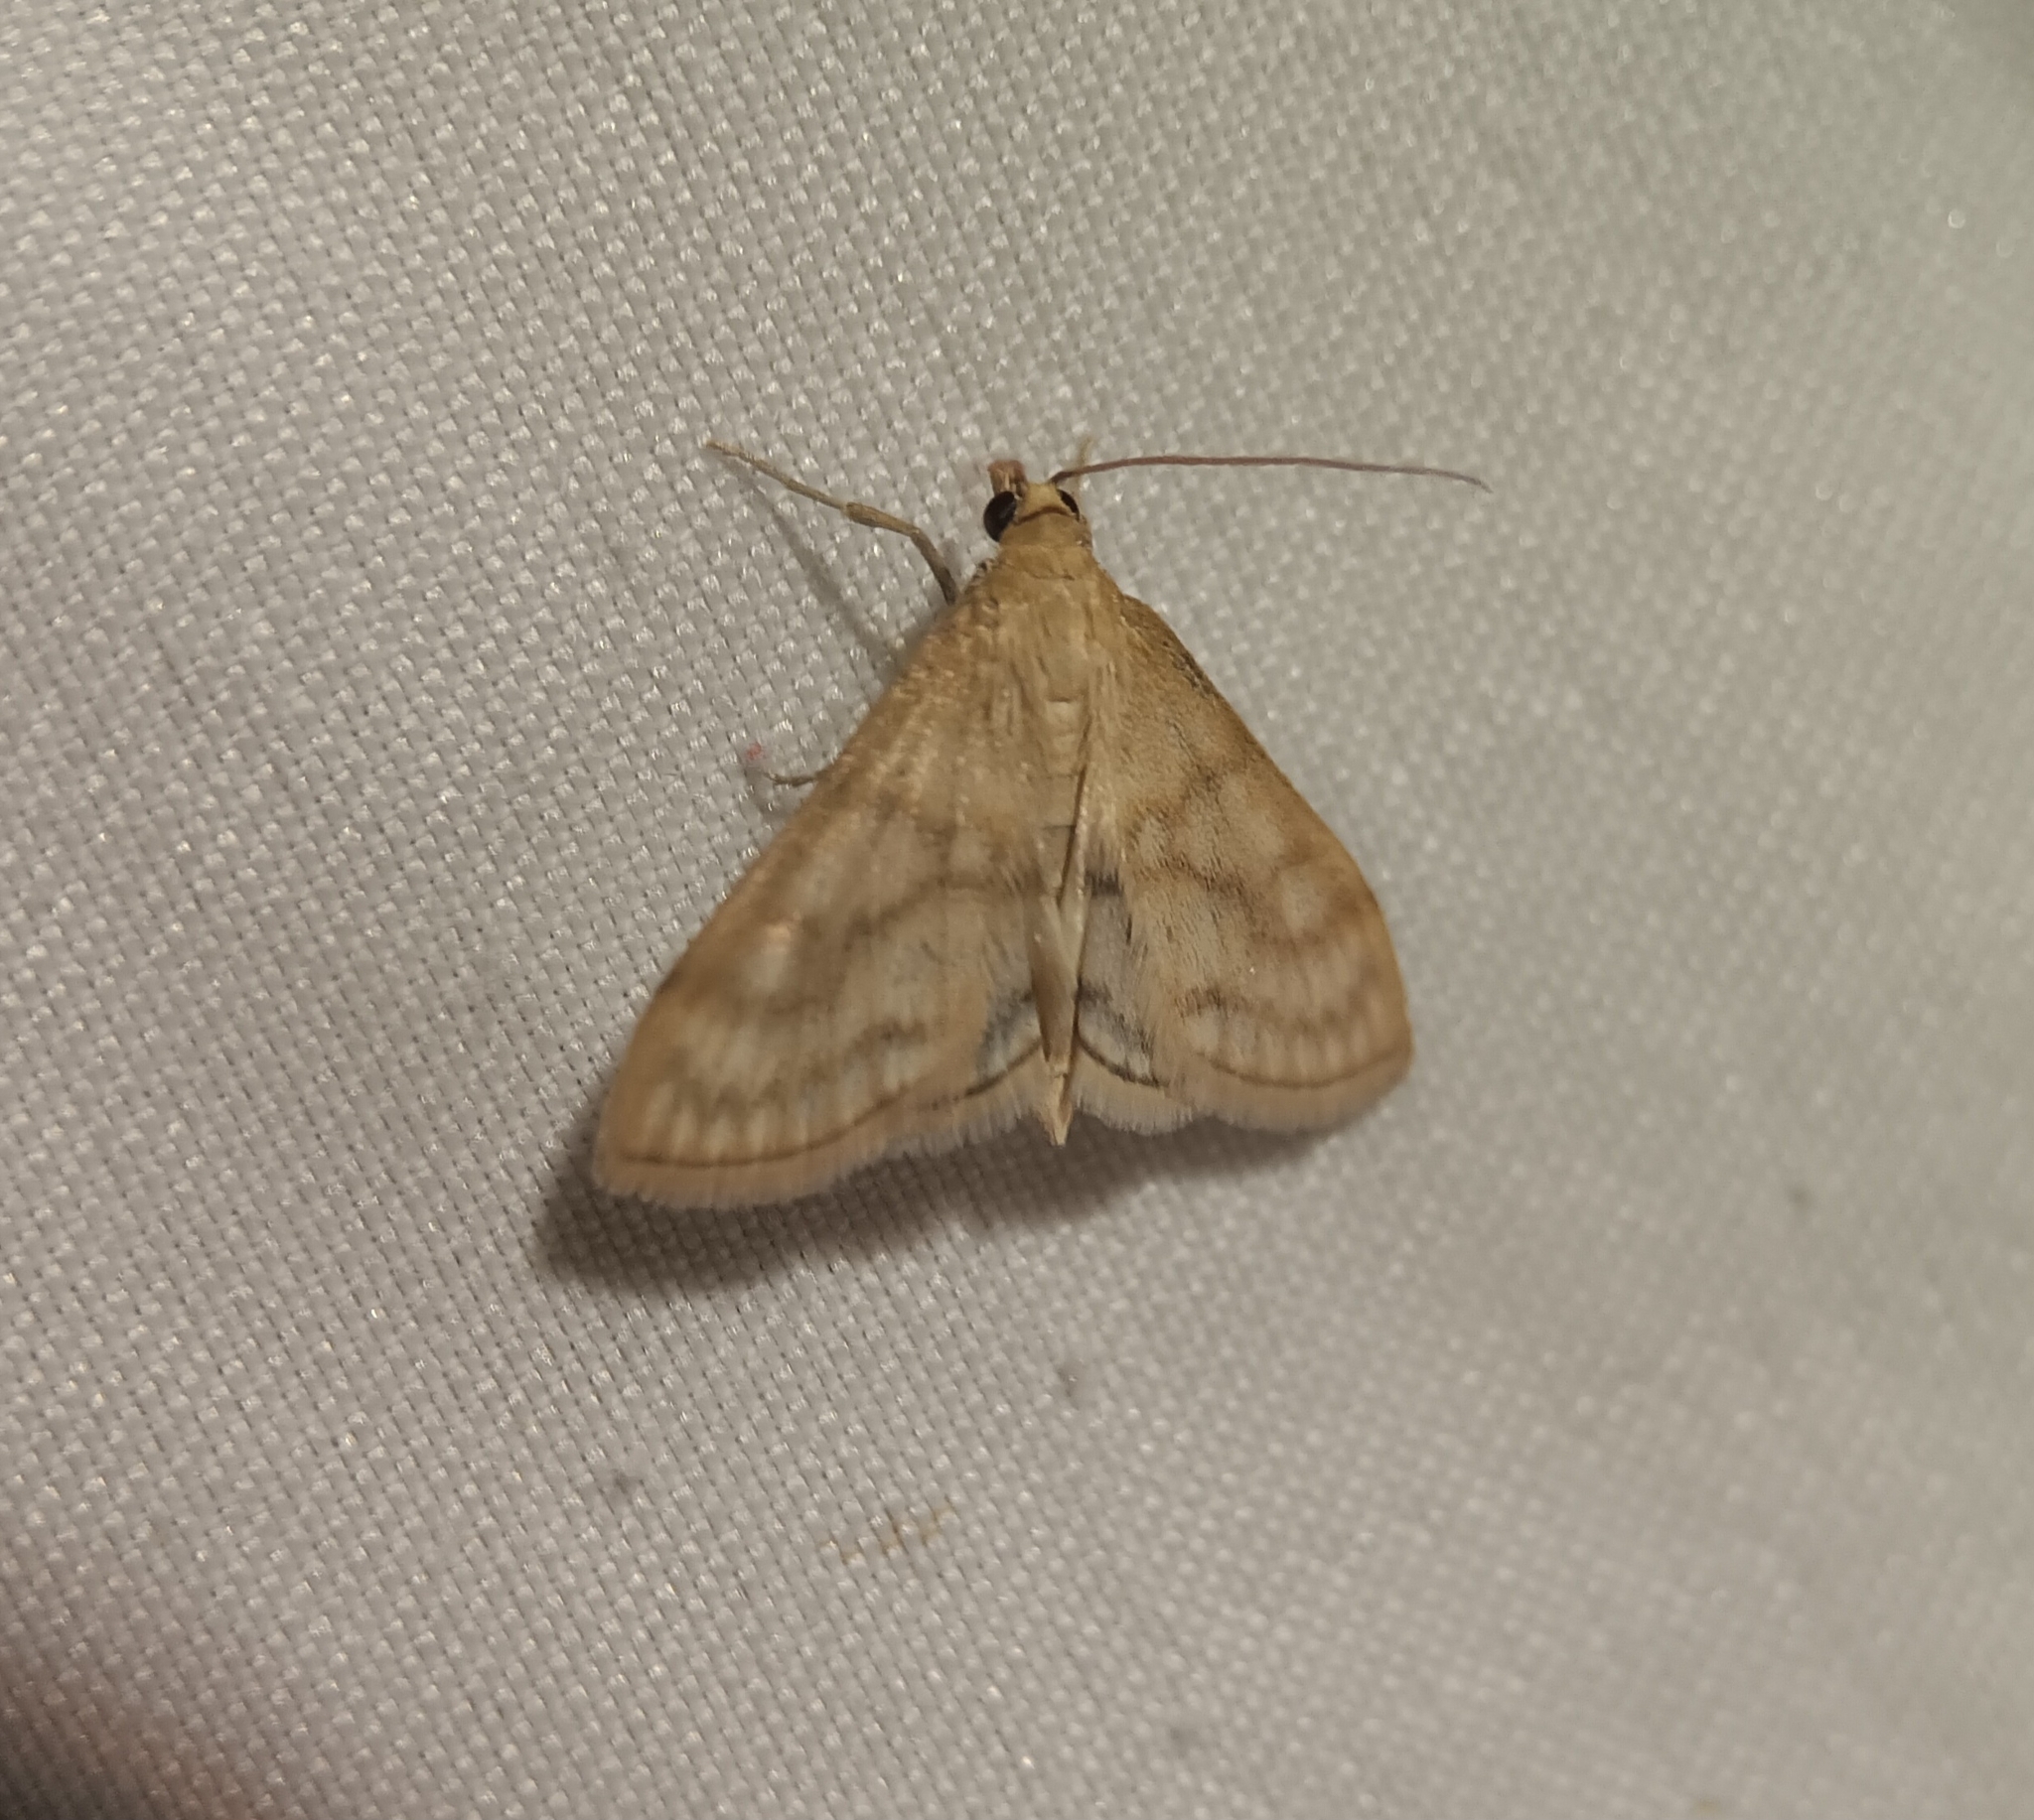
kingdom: Animalia
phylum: Arthropoda
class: Insecta
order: Lepidoptera
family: Crambidae
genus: Paracorsia
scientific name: Paracorsia repandalis
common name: Mullein moth
